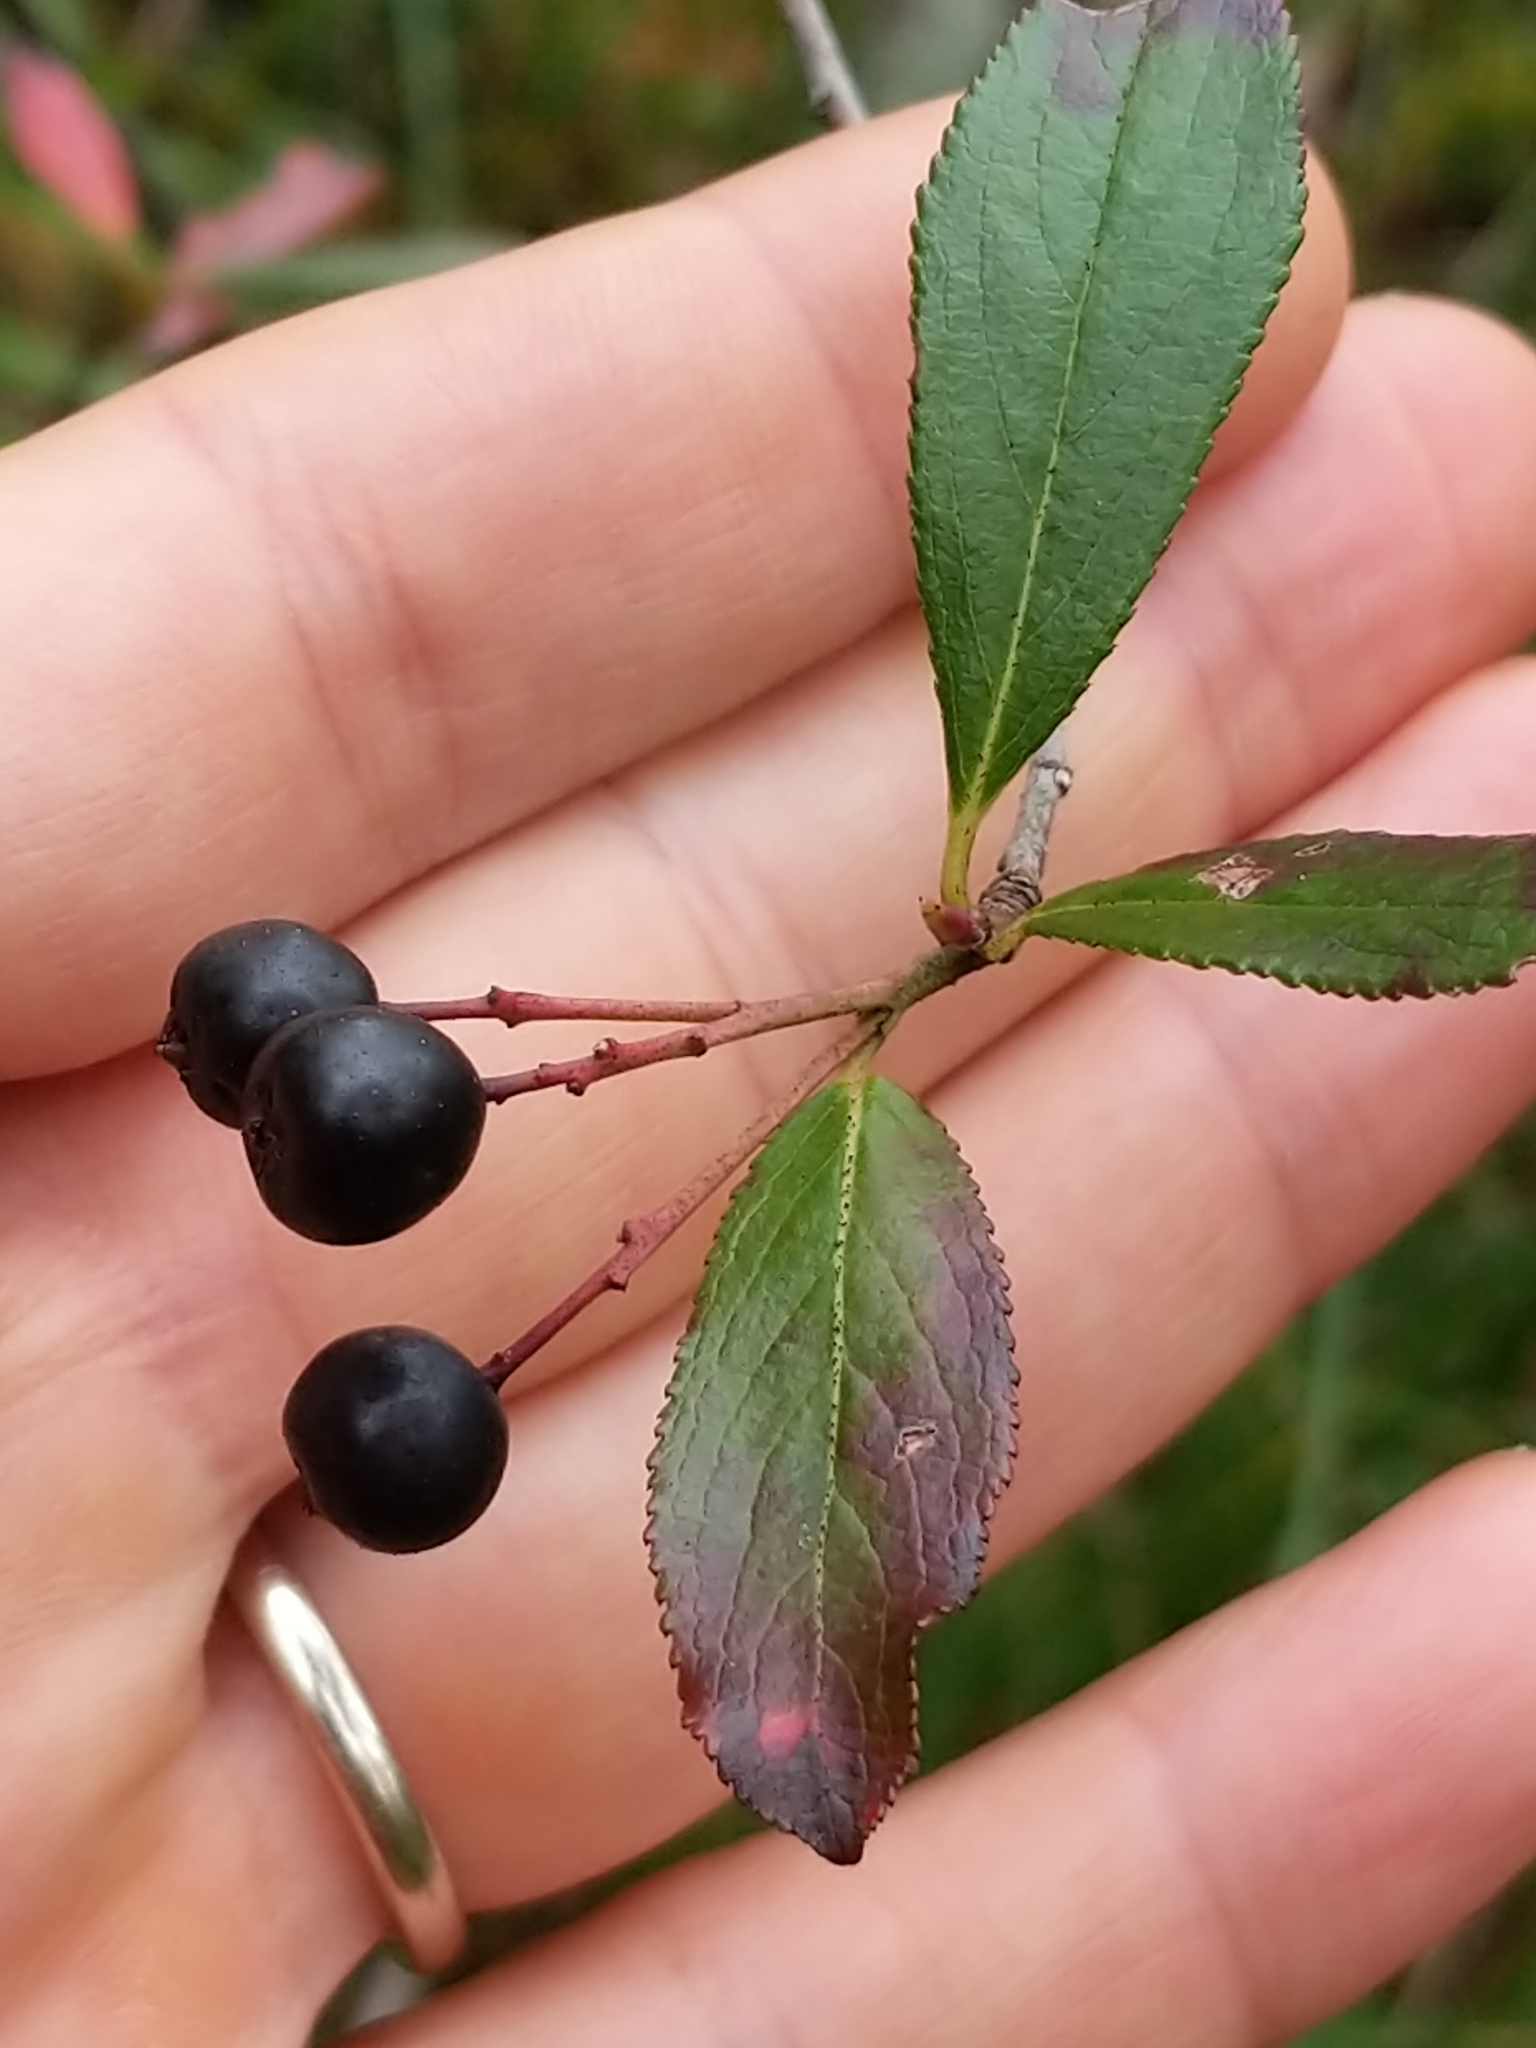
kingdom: Plantae
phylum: Tracheophyta
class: Magnoliopsida
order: Rosales
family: Rosaceae
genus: Aronia
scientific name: Aronia melanocarpa
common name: Black chokeberry
